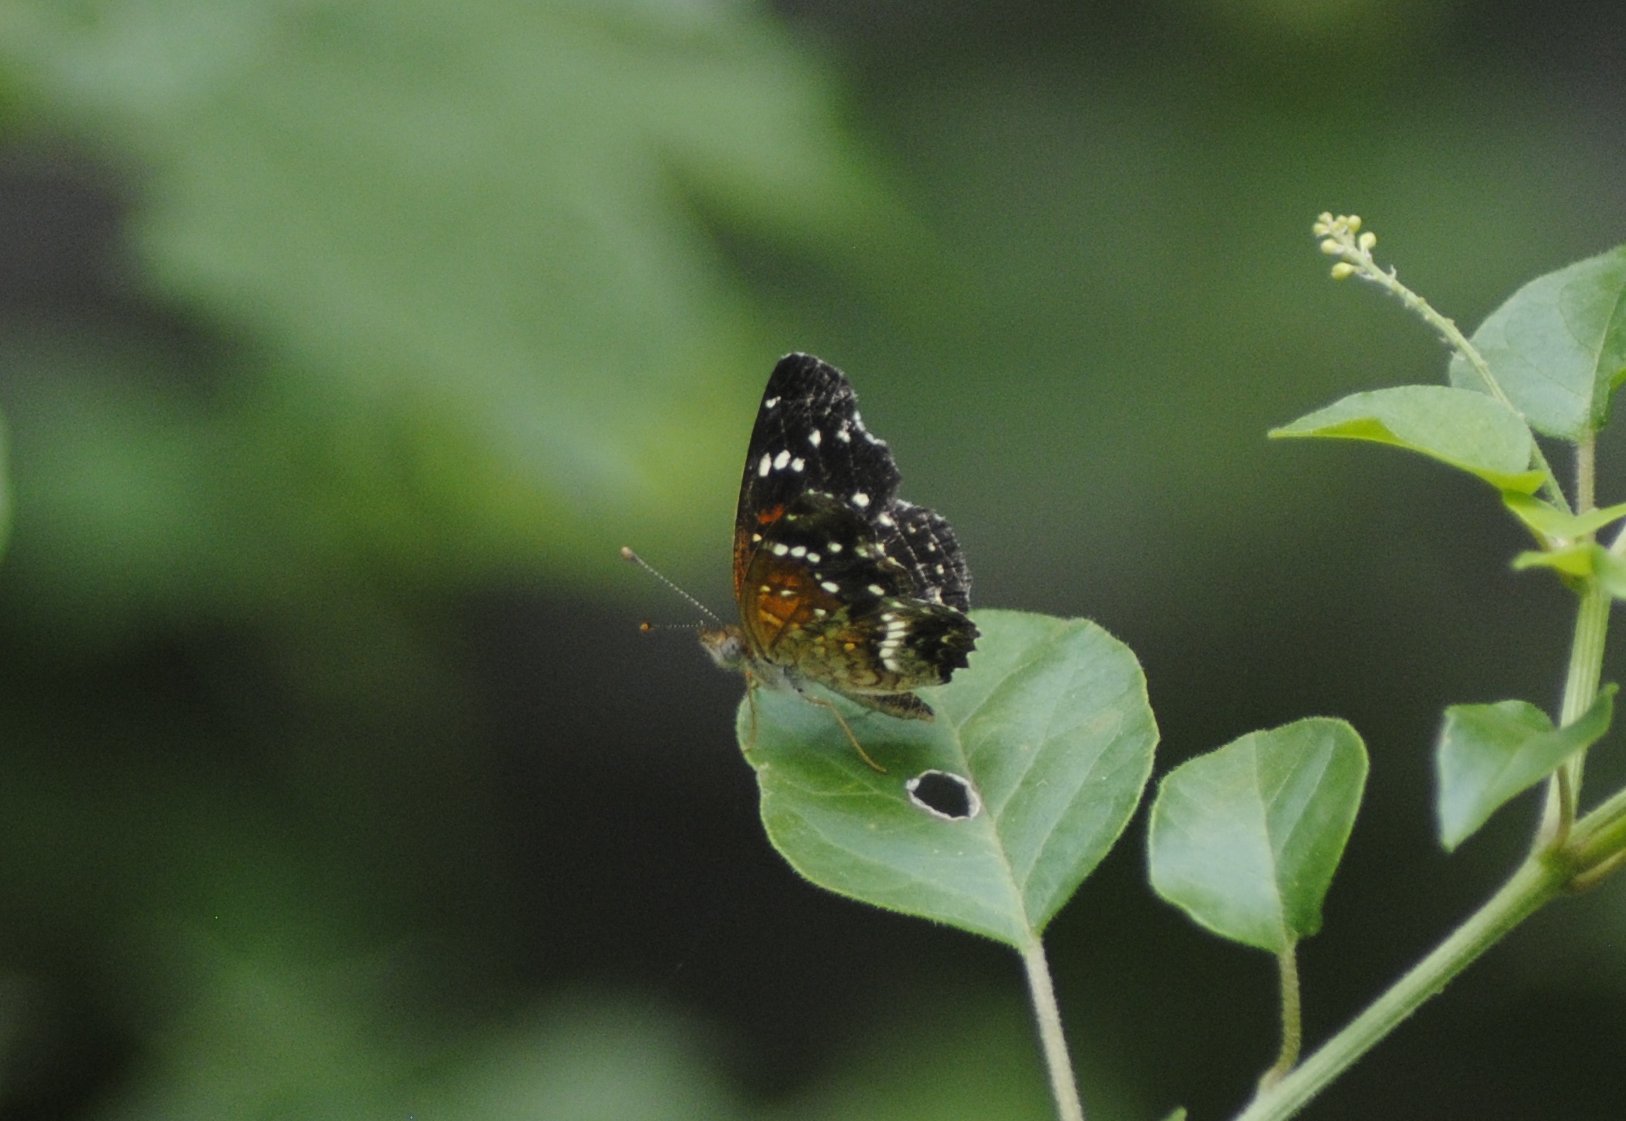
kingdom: Animalia
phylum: Arthropoda
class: Insecta
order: Lepidoptera
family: Nymphalidae
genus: Anthanassa
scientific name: Anthanassa texana
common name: Texan crescent
